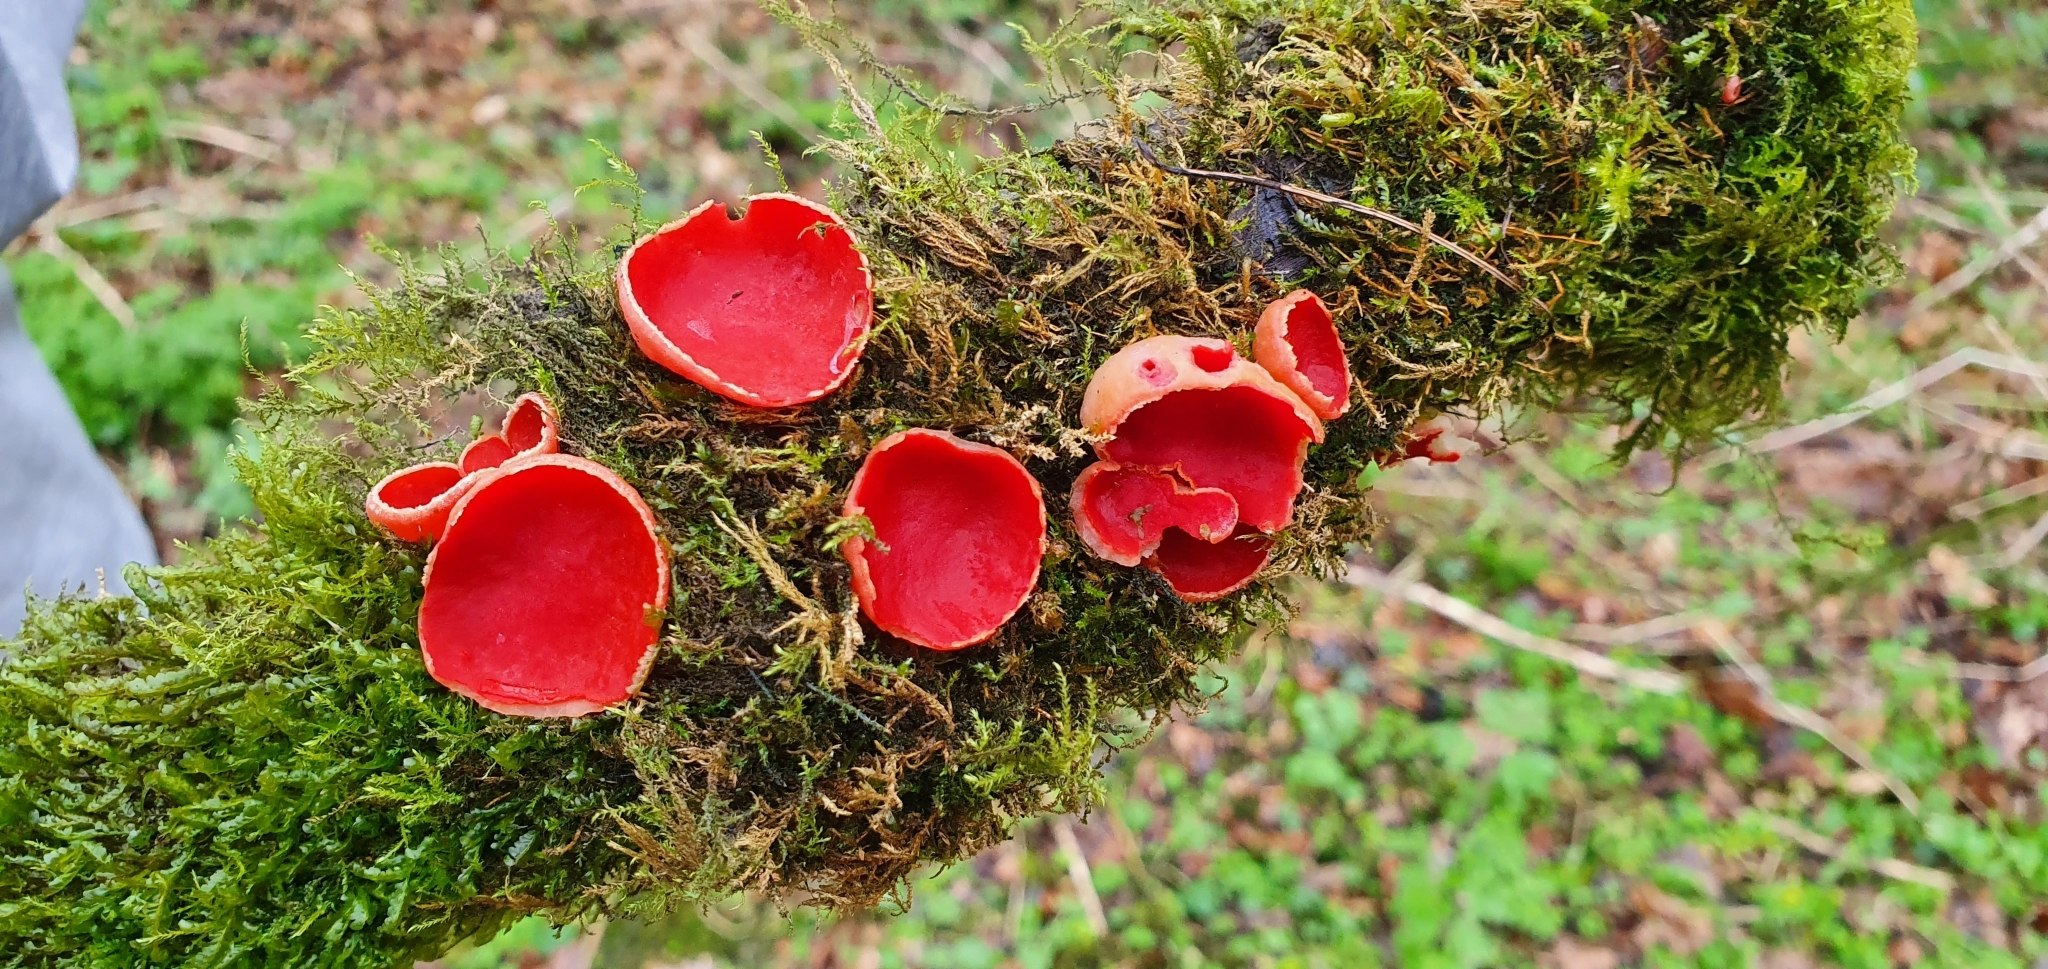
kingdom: Fungi
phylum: Ascomycota
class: Pezizomycetes
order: Pezizales
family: Sarcoscyphaceae
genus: Sarcoscypha
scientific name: Sarcoscypha
